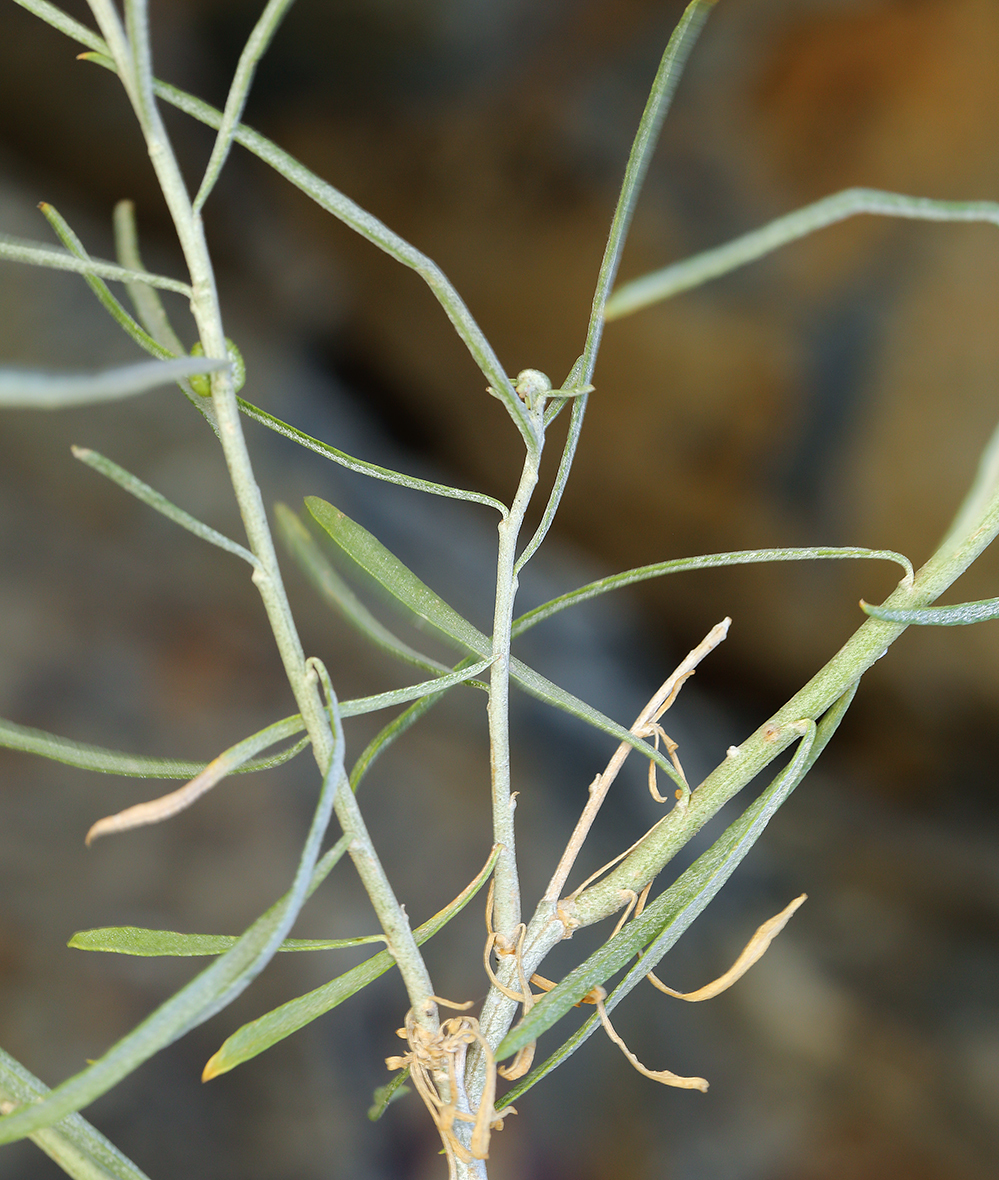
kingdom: Plantae
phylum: Tracheophyta
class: Magnoliopsida
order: Asterales
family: Asteraceae
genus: Ericameria
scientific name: Ericameria nauseosa
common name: Rubber rabbitbrush
